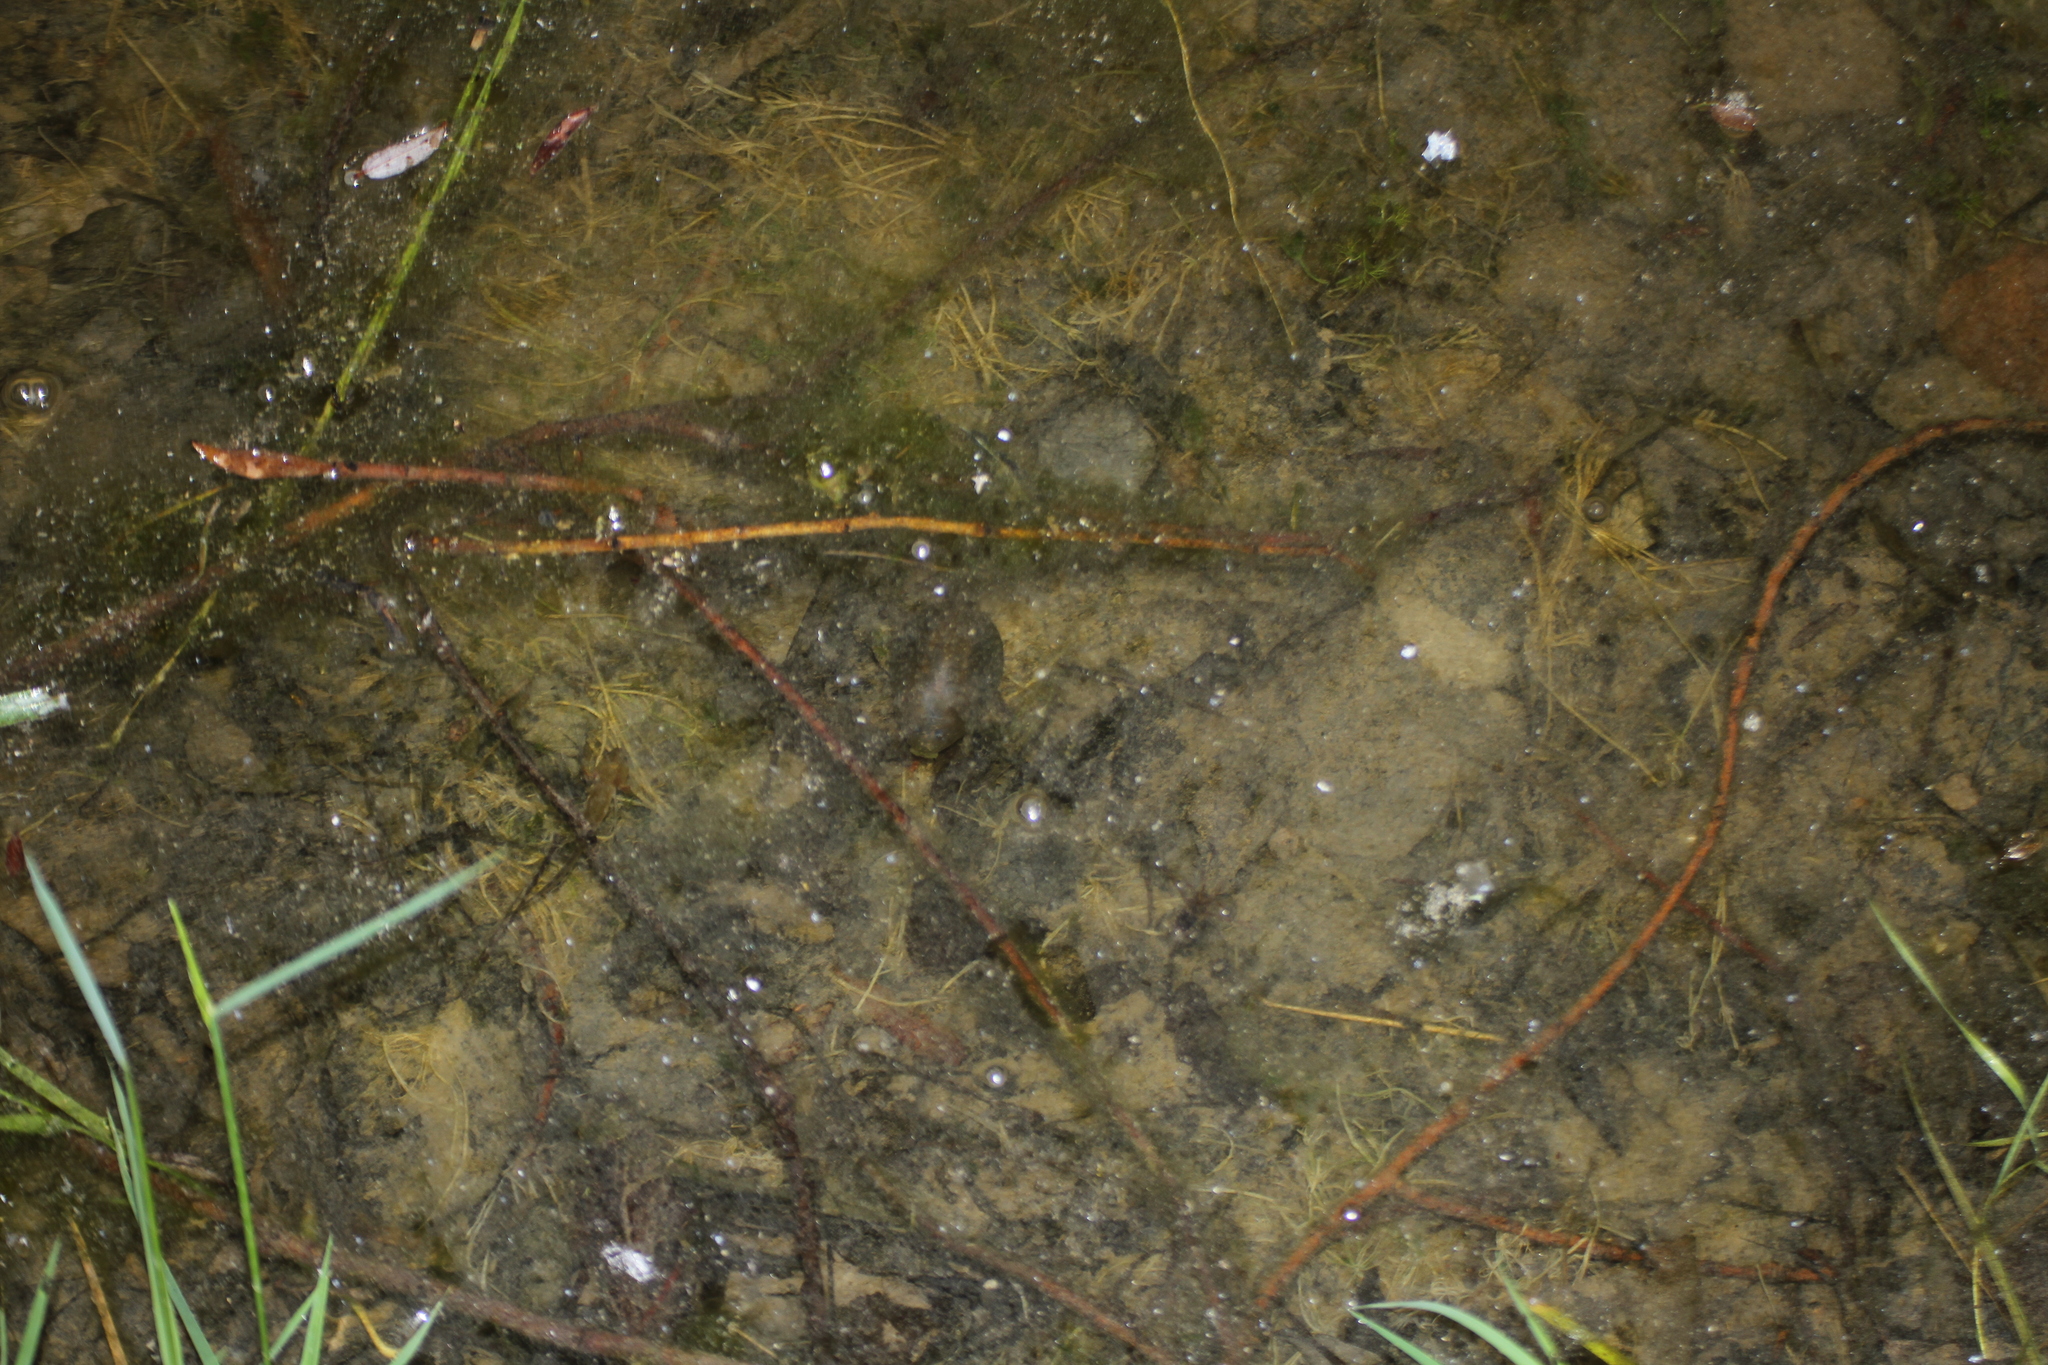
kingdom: Animalia
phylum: Chordata
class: Amphibia
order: Anura
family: Pelobatidae
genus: Pelobates
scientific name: Pelobates cultripes
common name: Western spadefoot
